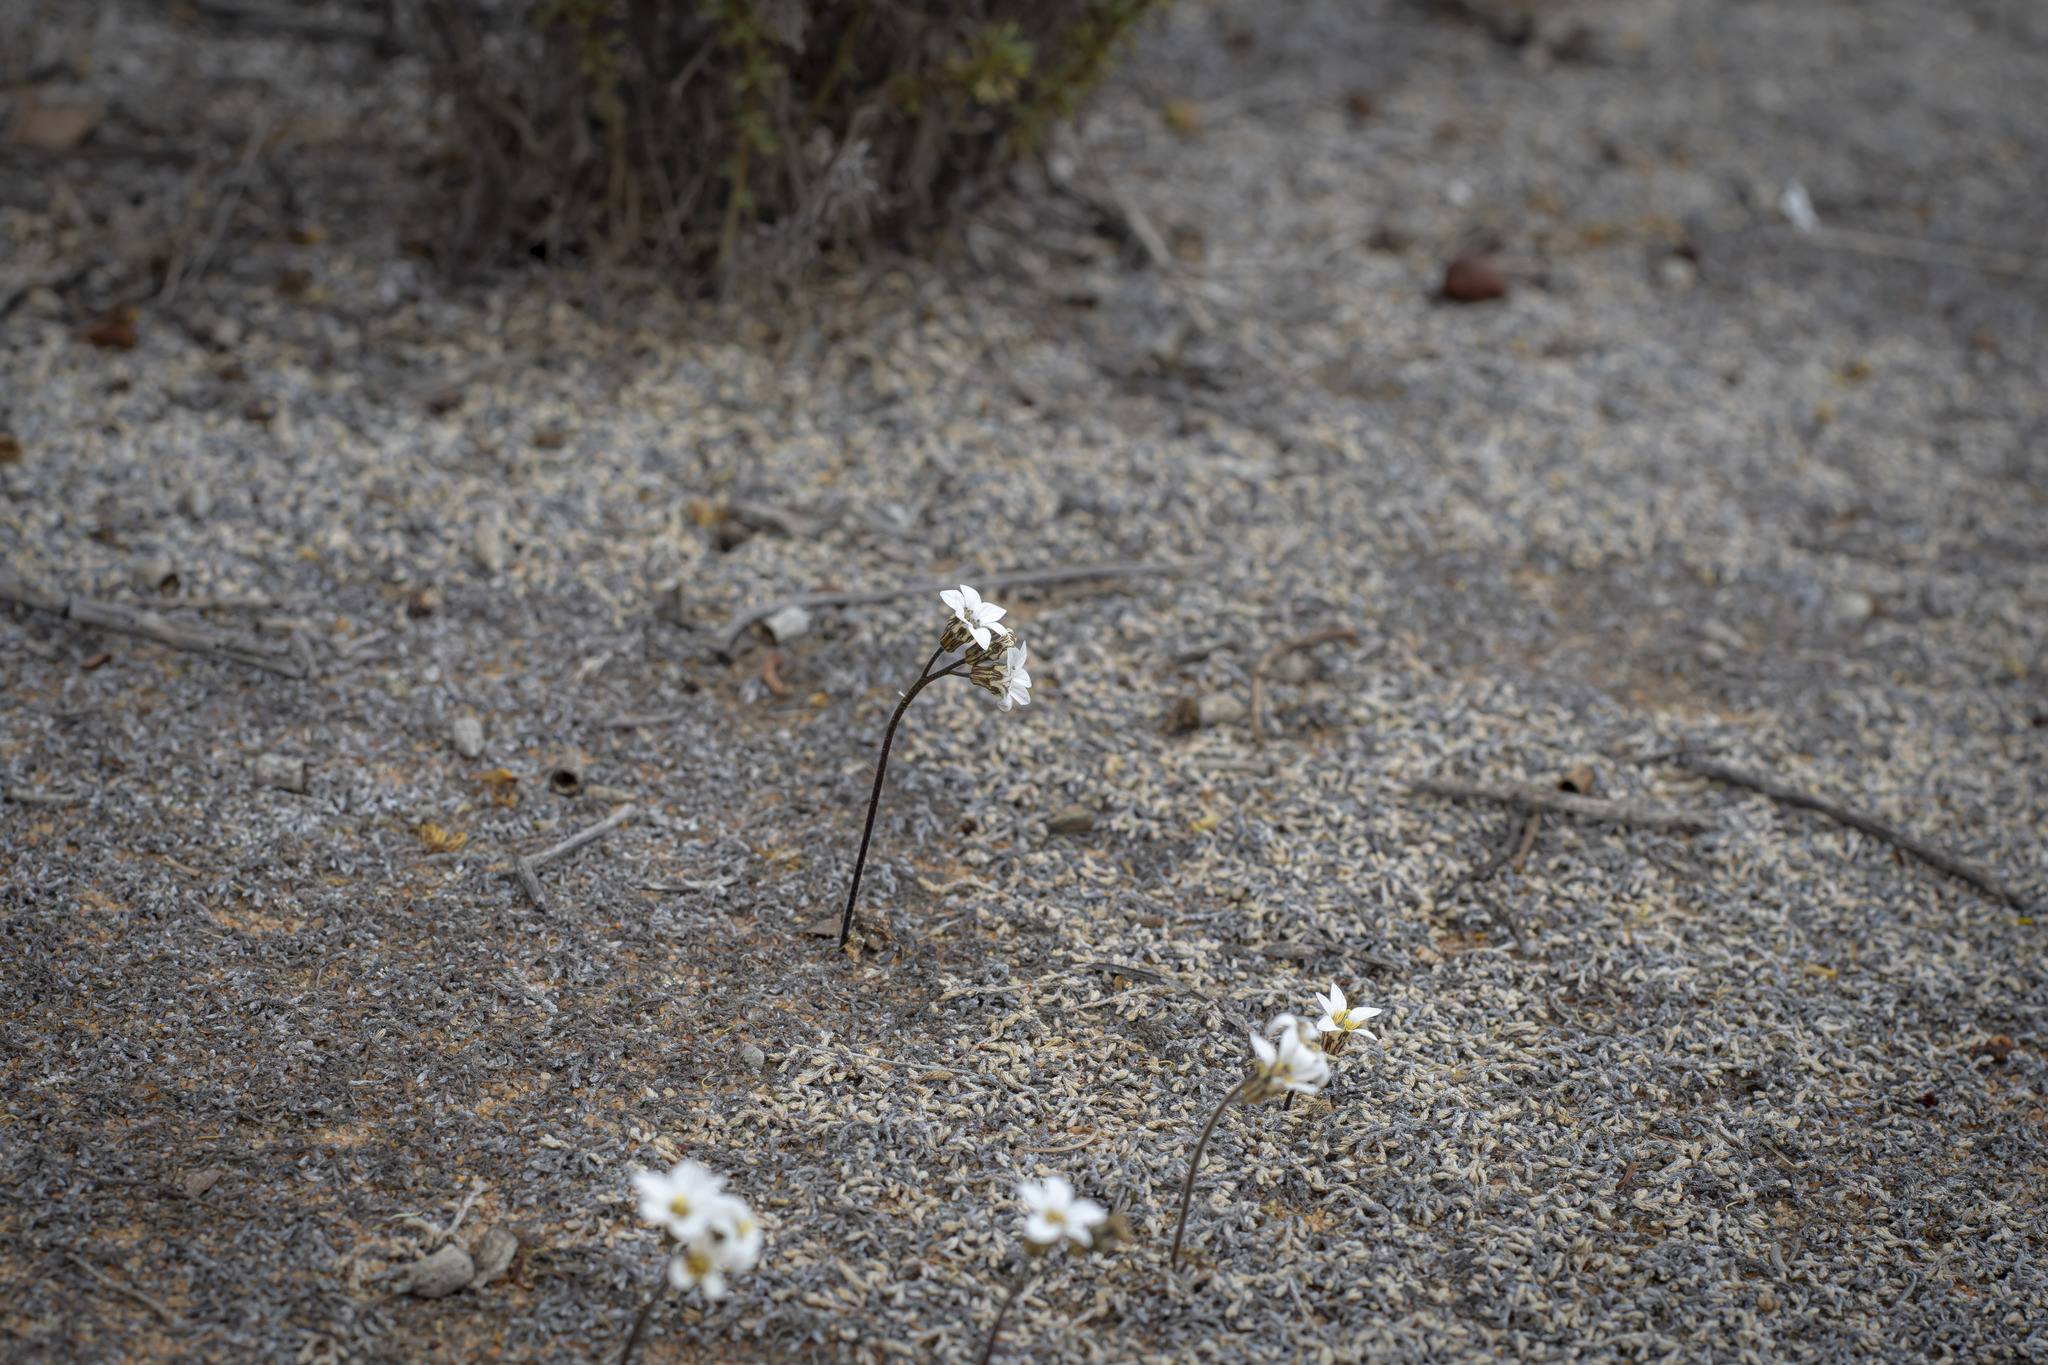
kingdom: Plantae
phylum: Tracheophyta
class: Magnoliopsida
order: Saxifragales
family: Saxifragaceae
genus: Jepsonia
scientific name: Jepsonia parryi
